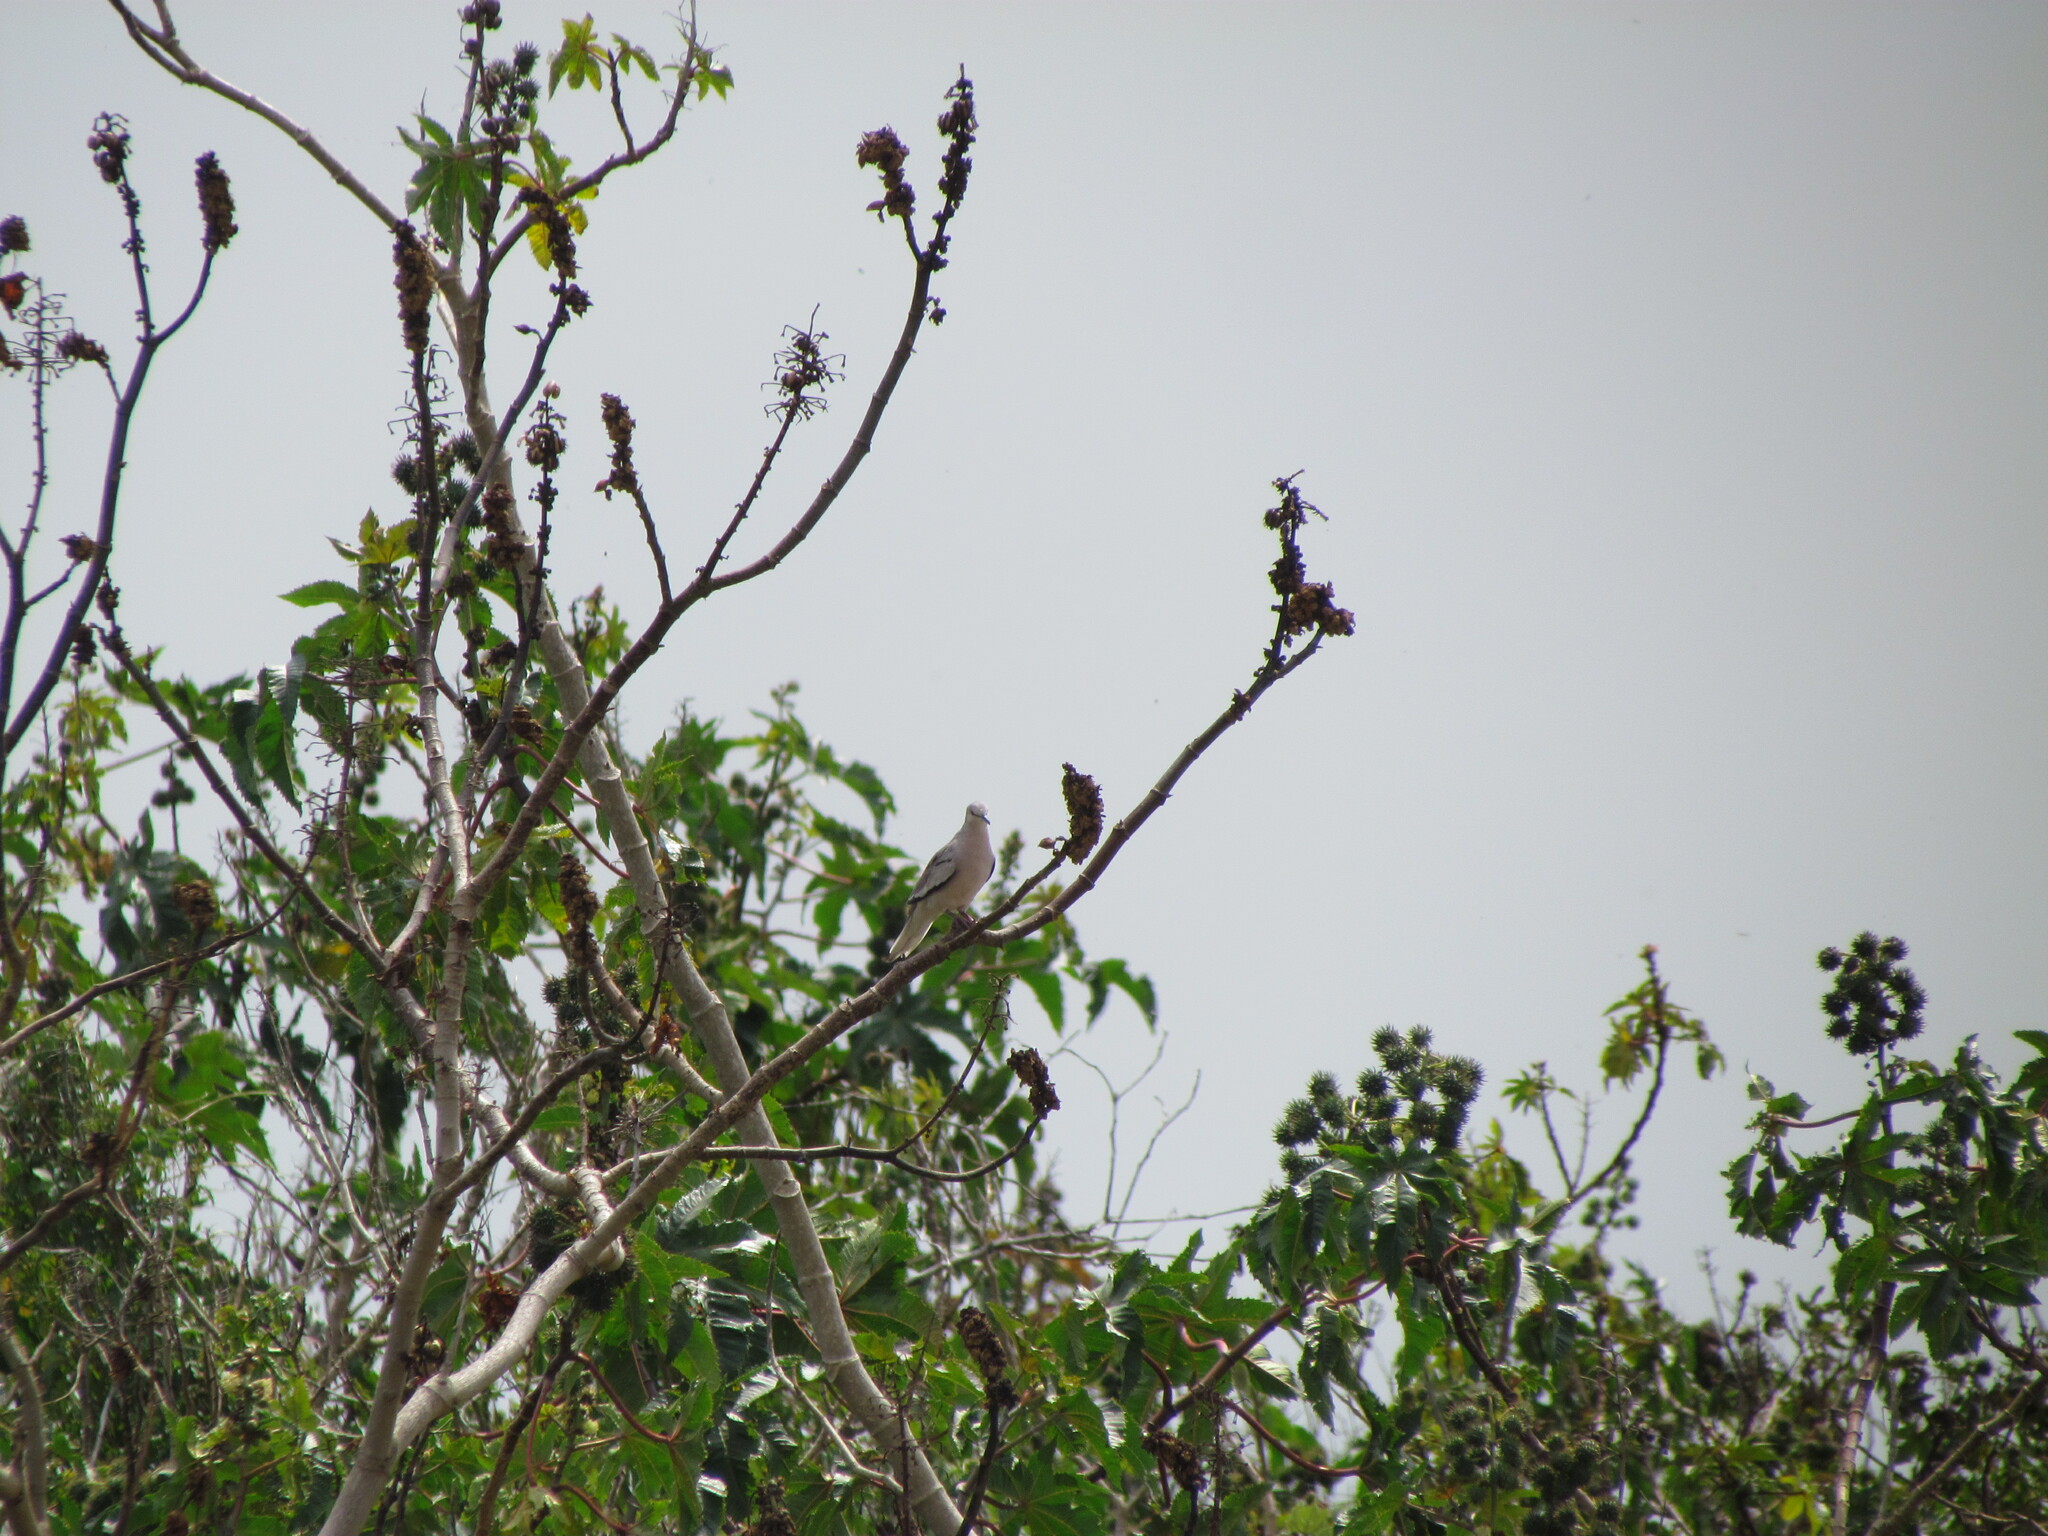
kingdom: Animalia
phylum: Chordata
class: Aves
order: Columbiformes
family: Columbidae
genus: Columbina
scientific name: Columbina picui
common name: Picui ground dove
